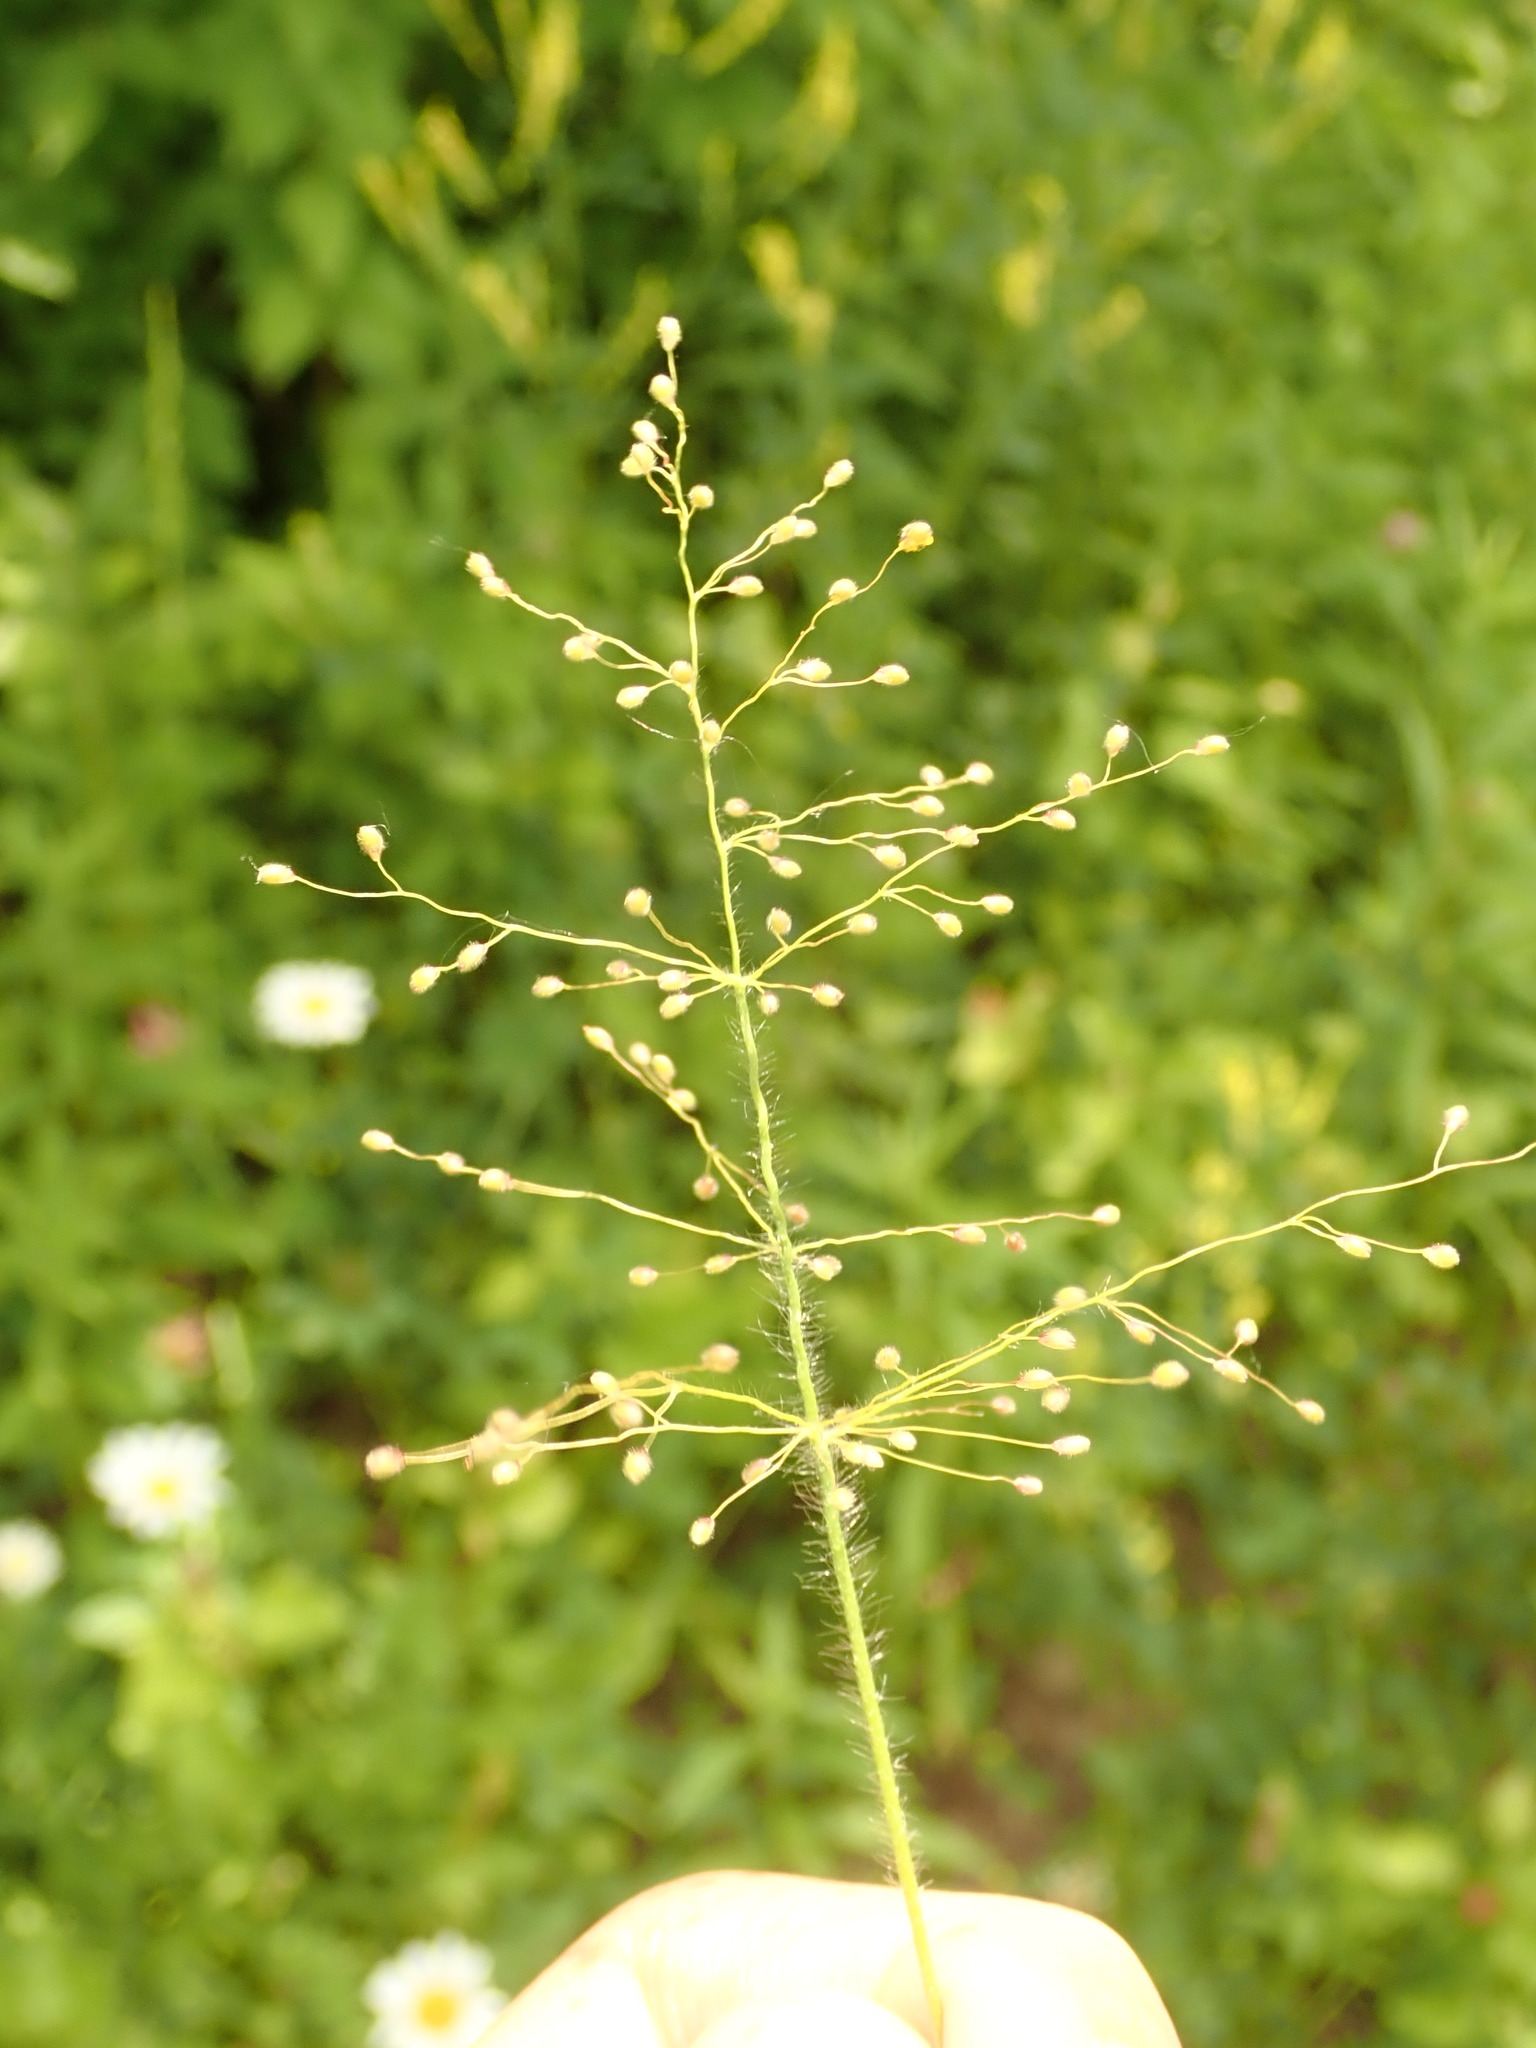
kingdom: Plantae
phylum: Tracheophyta
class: Liliopsida
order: Poales
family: Poaceae
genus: Dichanthelium
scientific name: Dichanthelium clandestinum
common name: Deer-tongue grass
